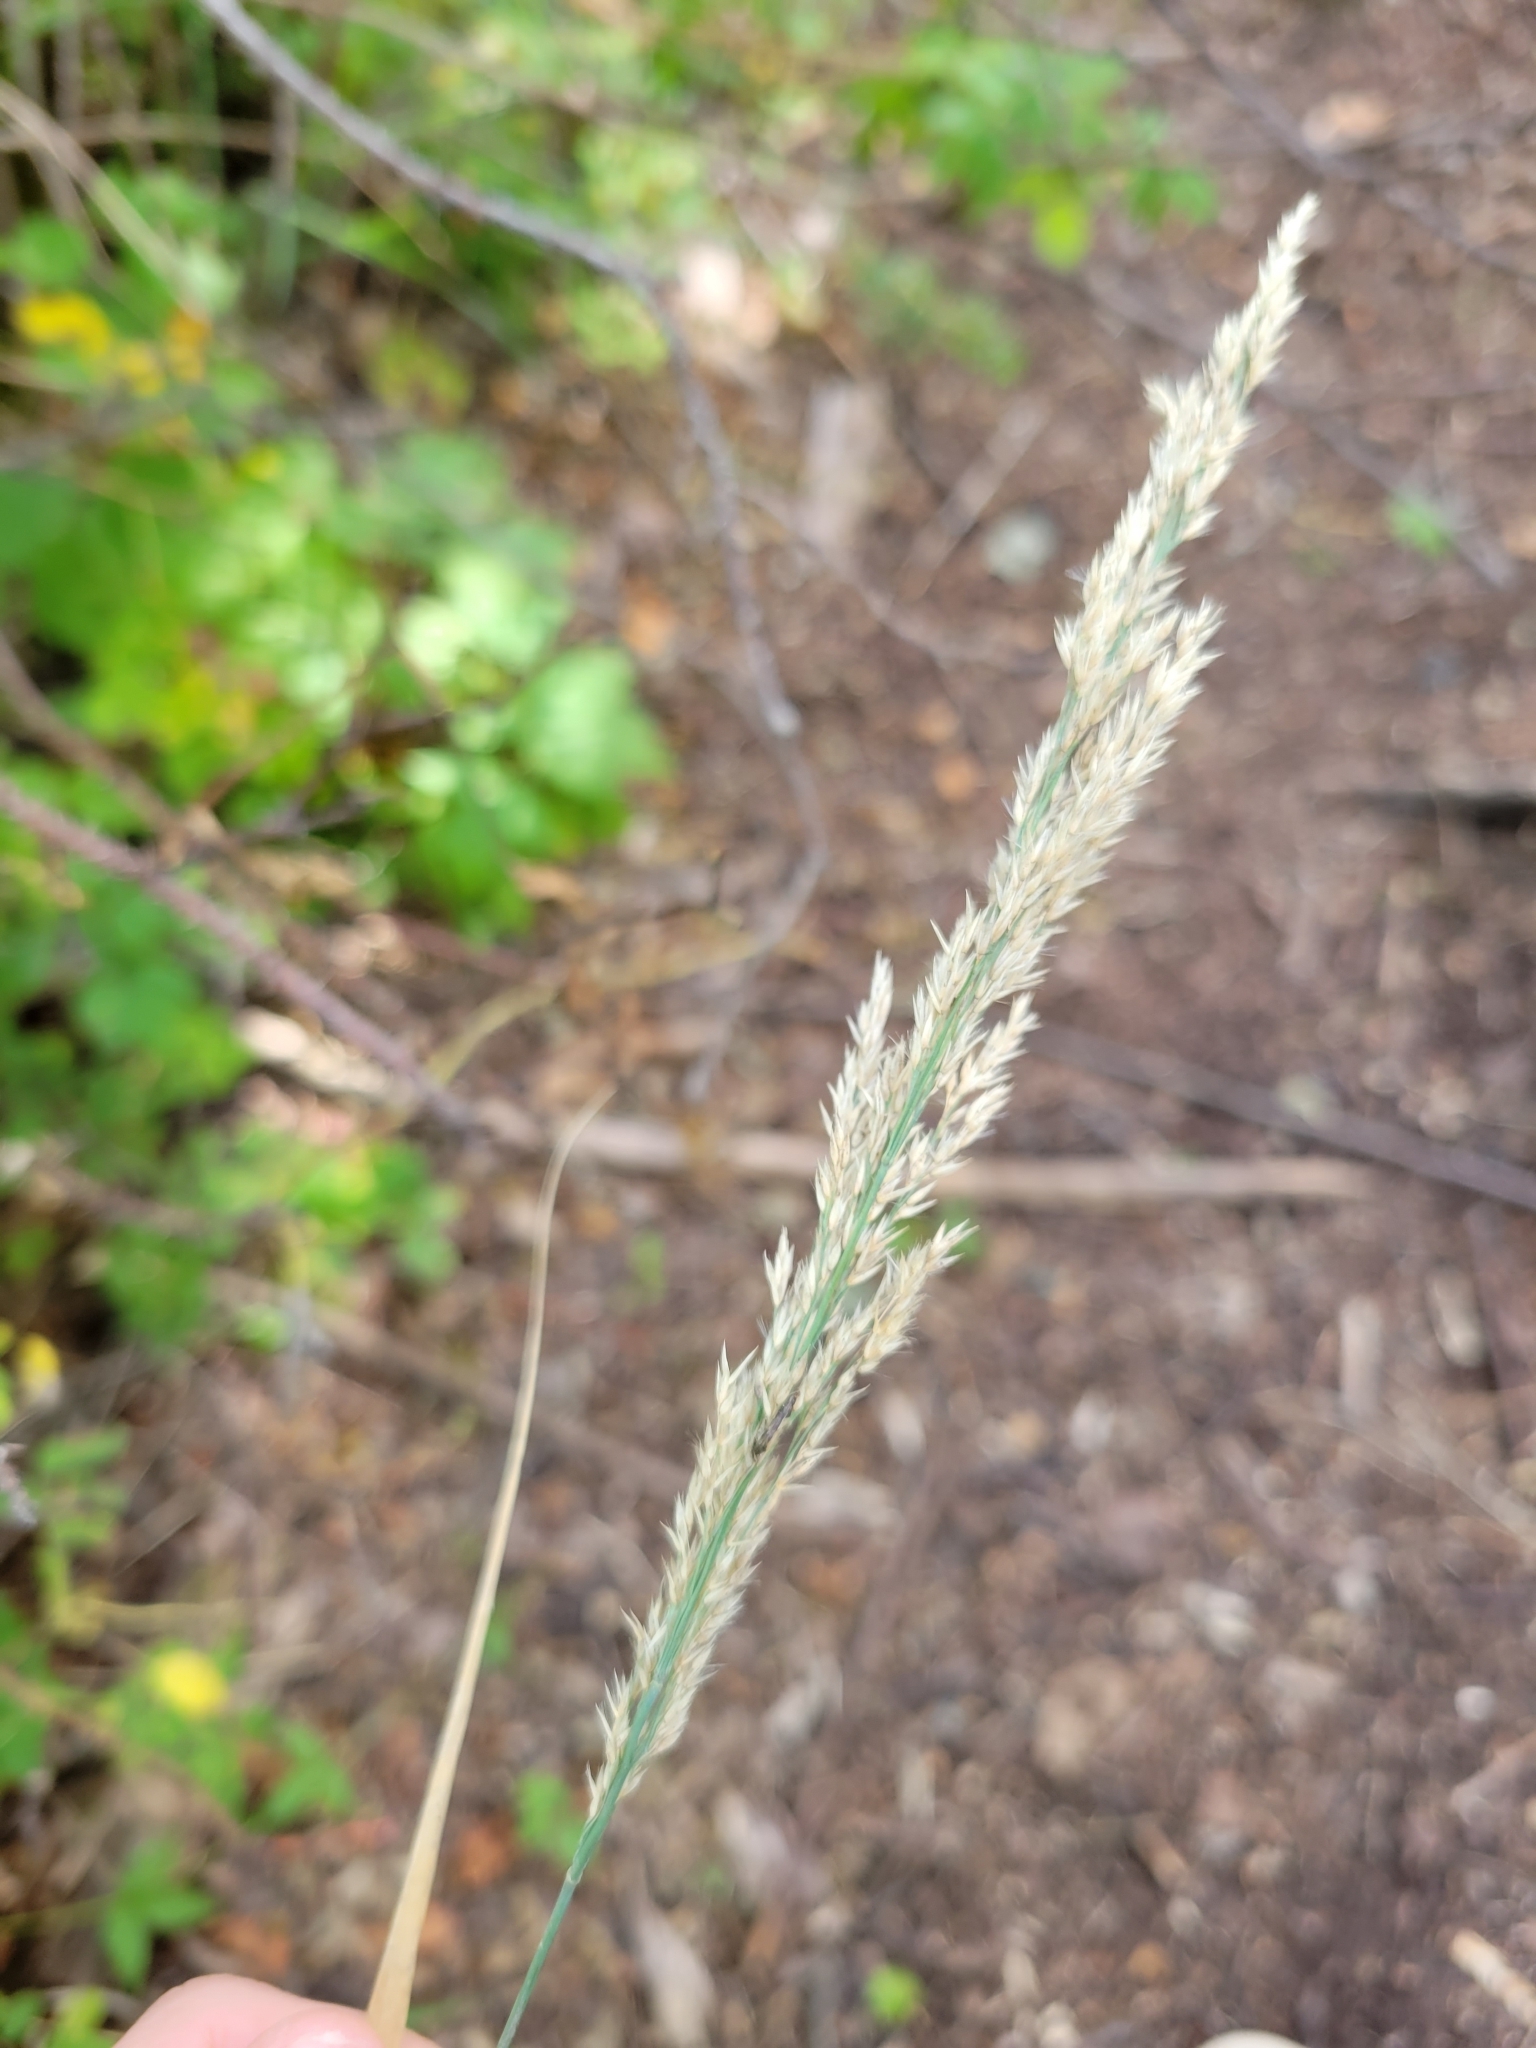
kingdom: Plantae
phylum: Tracheophyta
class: Liliopsida
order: Poales
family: Poaceae
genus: Calamagrostis
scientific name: Calamagrostis canadensis
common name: Canada bluejoint
